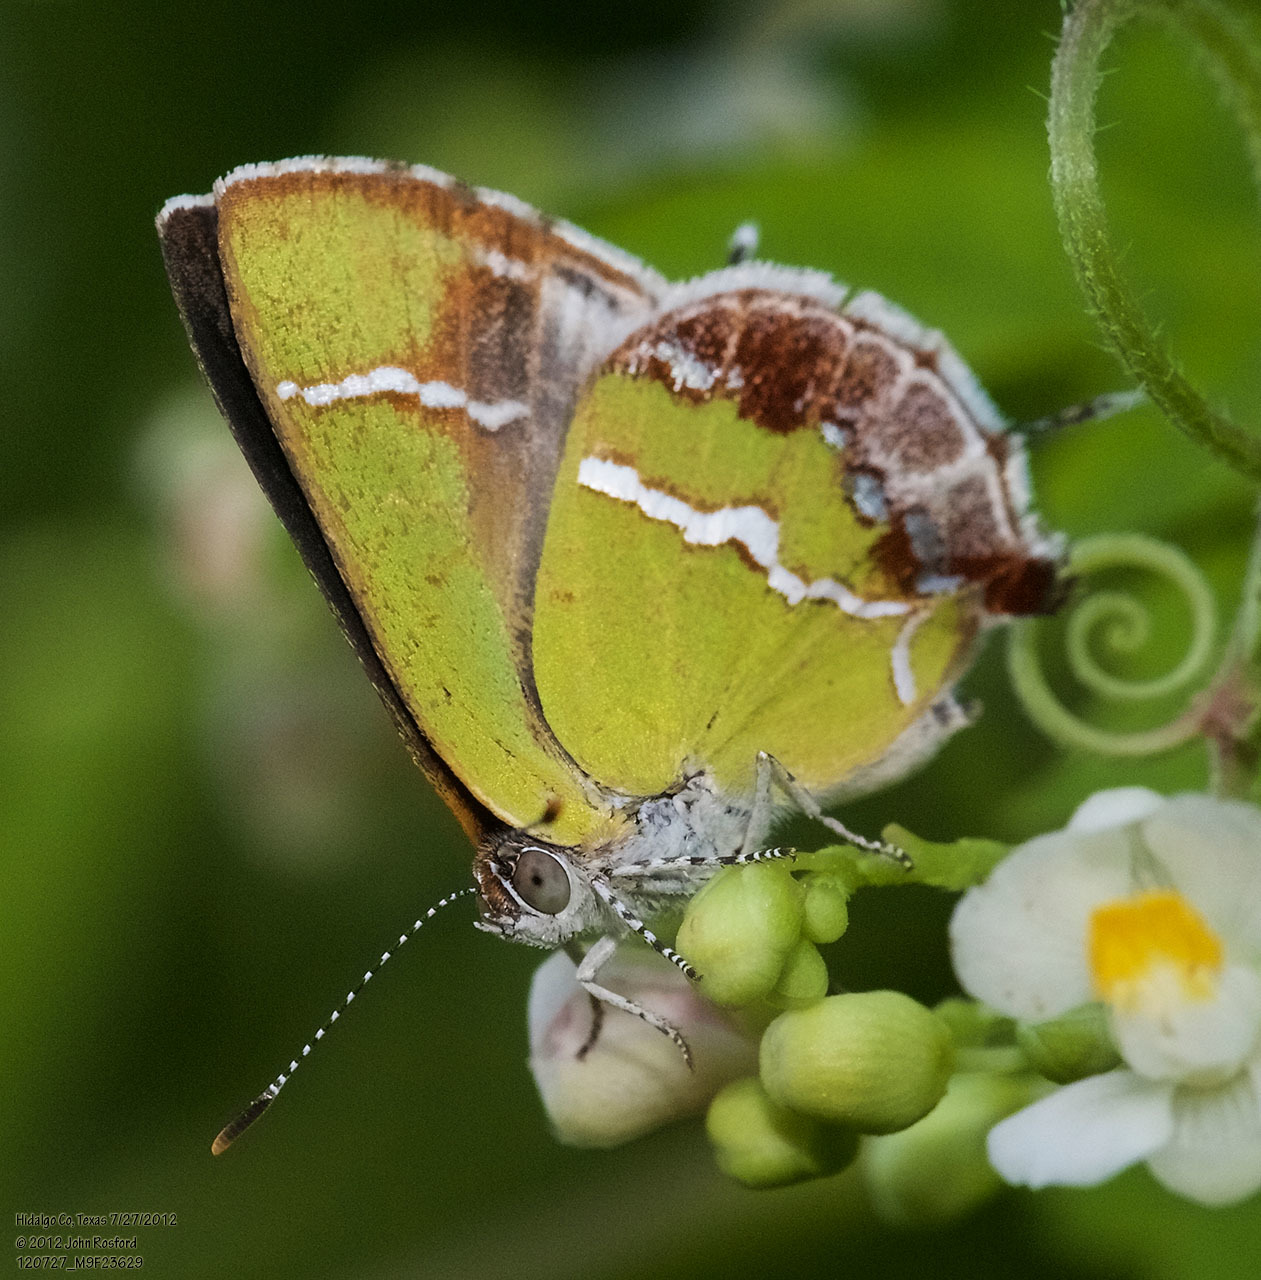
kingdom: Animalia
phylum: Arthropoda
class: Insecta
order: Lepidoptera
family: Lycaenidae
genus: Chlorostrymon
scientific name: Chlorostrymon simaethis
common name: Silver-banded hairstreak
